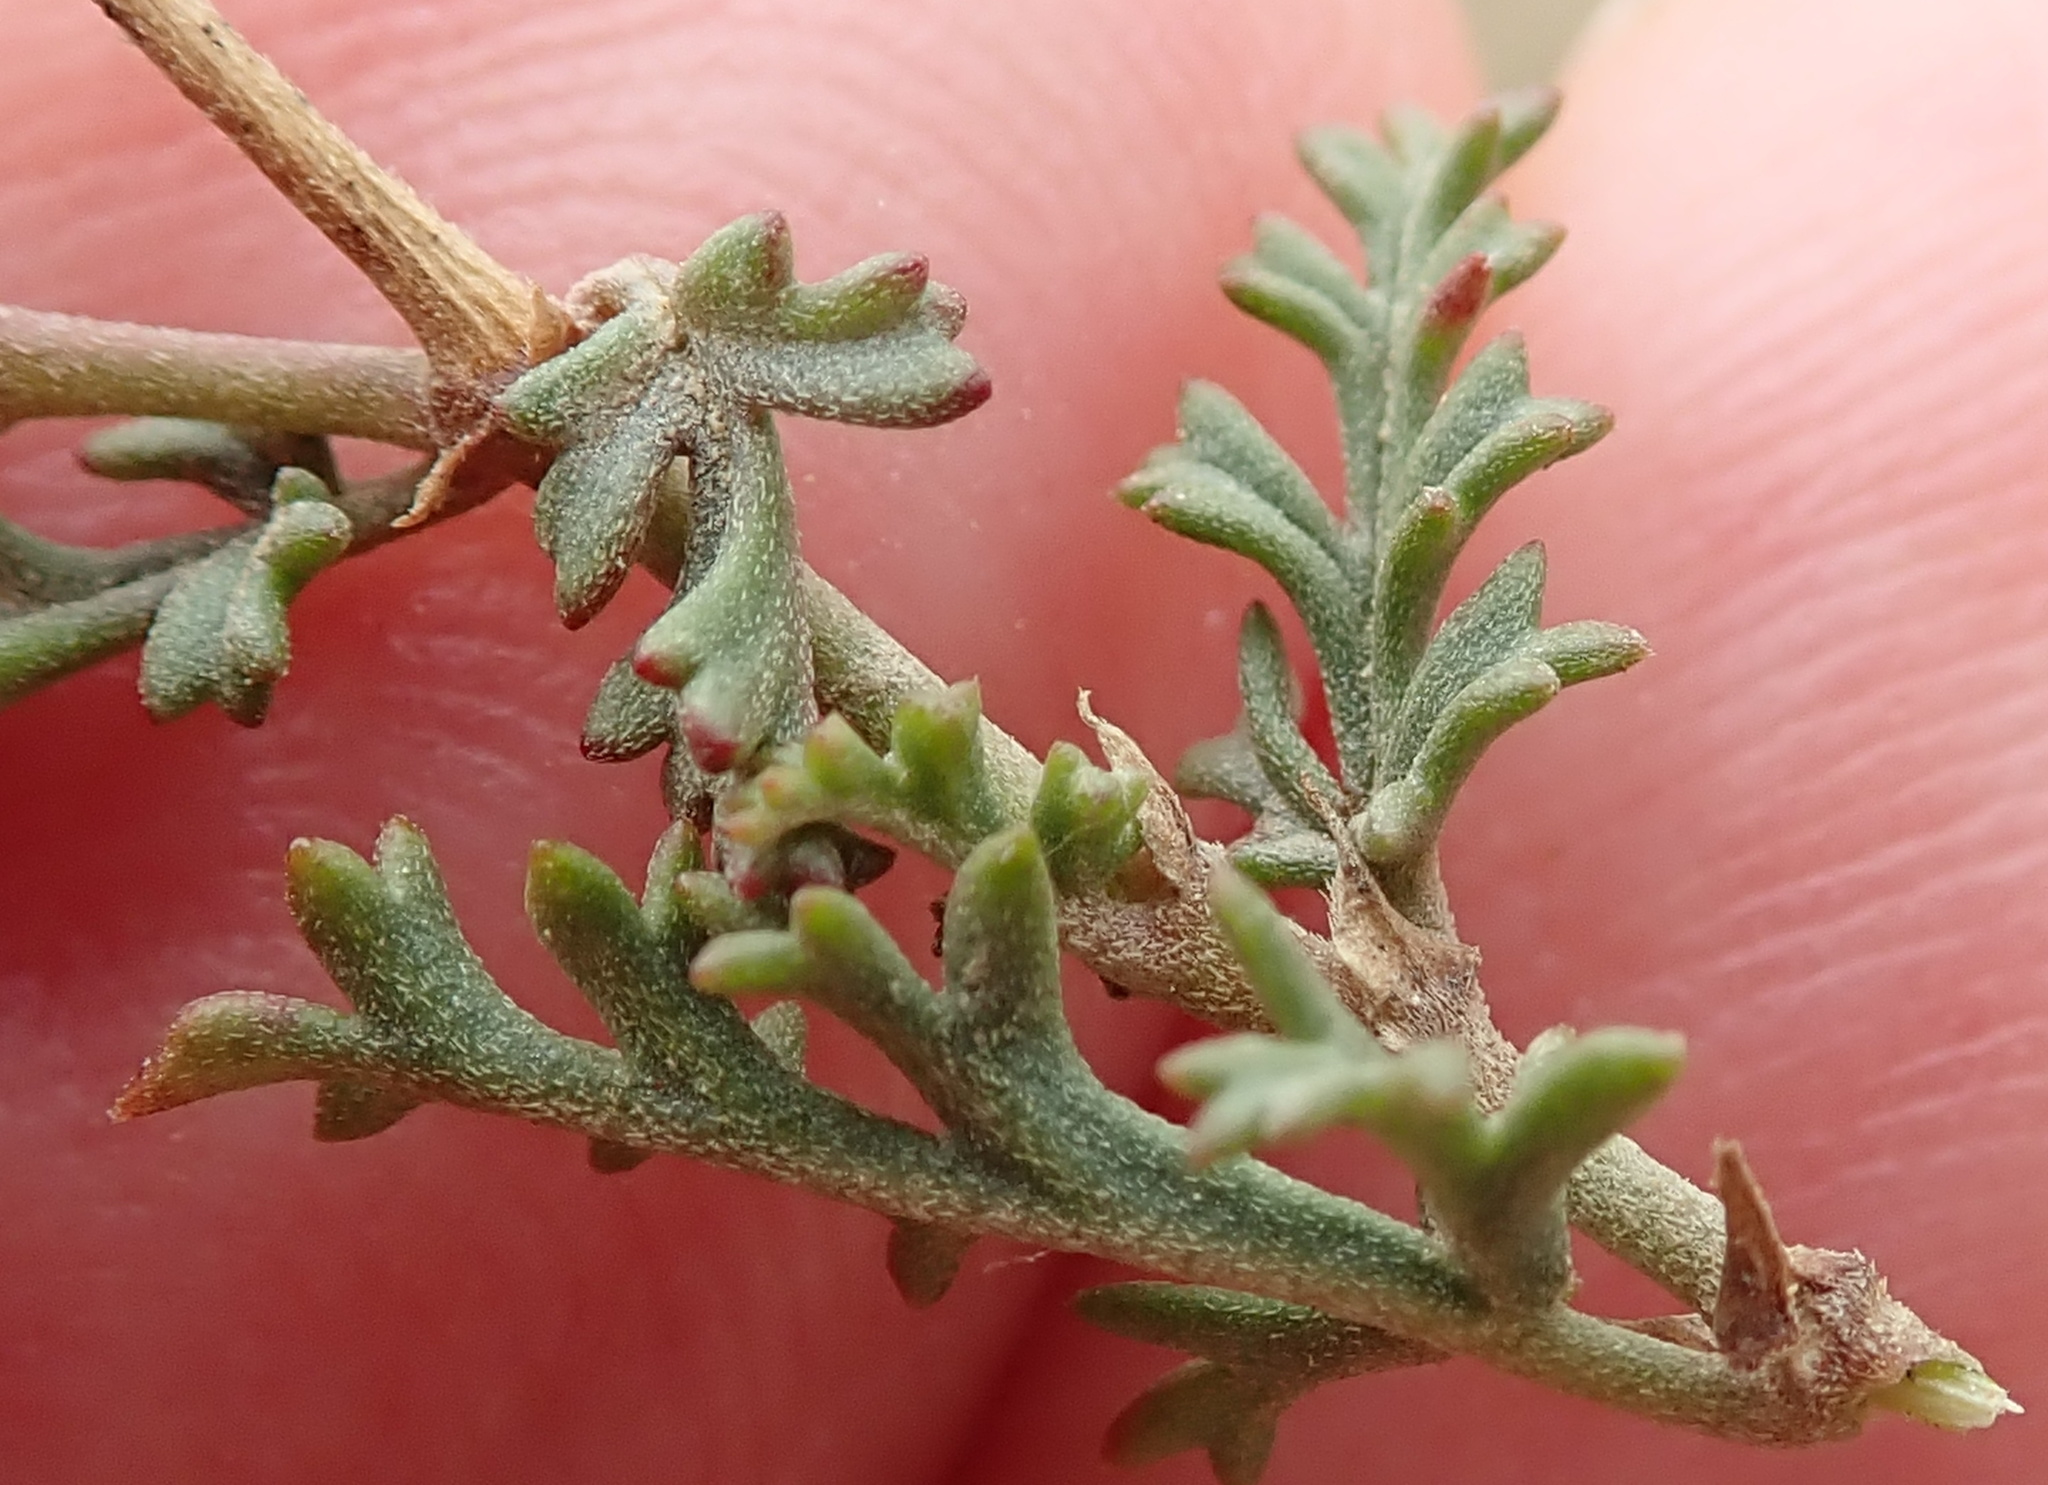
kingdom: Plantae
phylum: Tracheophyta
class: Magnoliopsida
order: Geraniales
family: Geraniaceae
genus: Pelargonium
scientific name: Pelargonium caucalifolium
